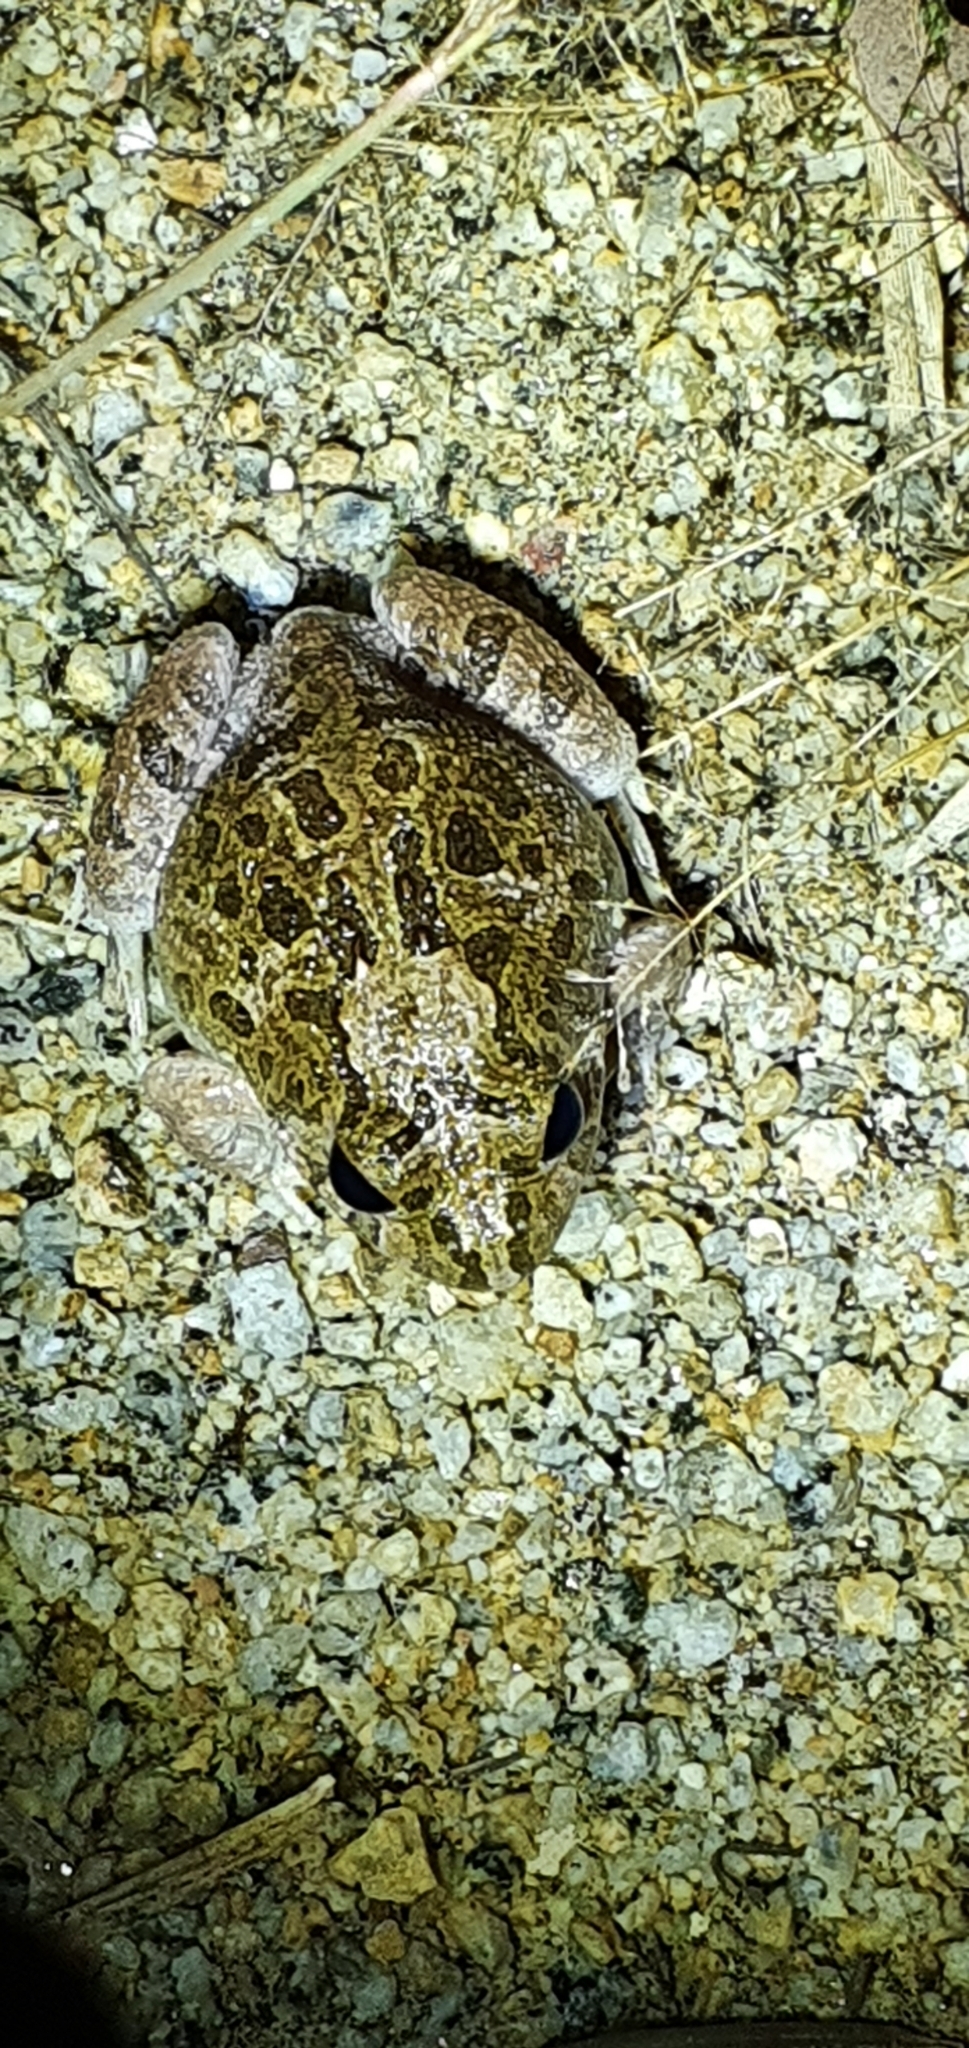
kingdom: Animalia
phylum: Chordata
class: Amphibia
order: Anura
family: Limnodynastidae
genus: Platyplectrum
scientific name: Platyplectrum ornatum
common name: Ornate burrowing frog
